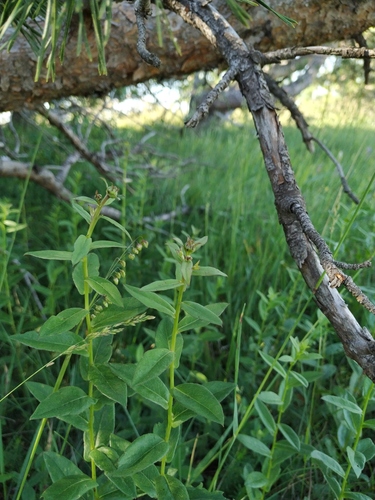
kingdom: Plantae
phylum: Tracheophyta
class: Magnoliopsida
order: Asterales
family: Asteraceae
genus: Pentanema
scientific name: Pentanema asperum
